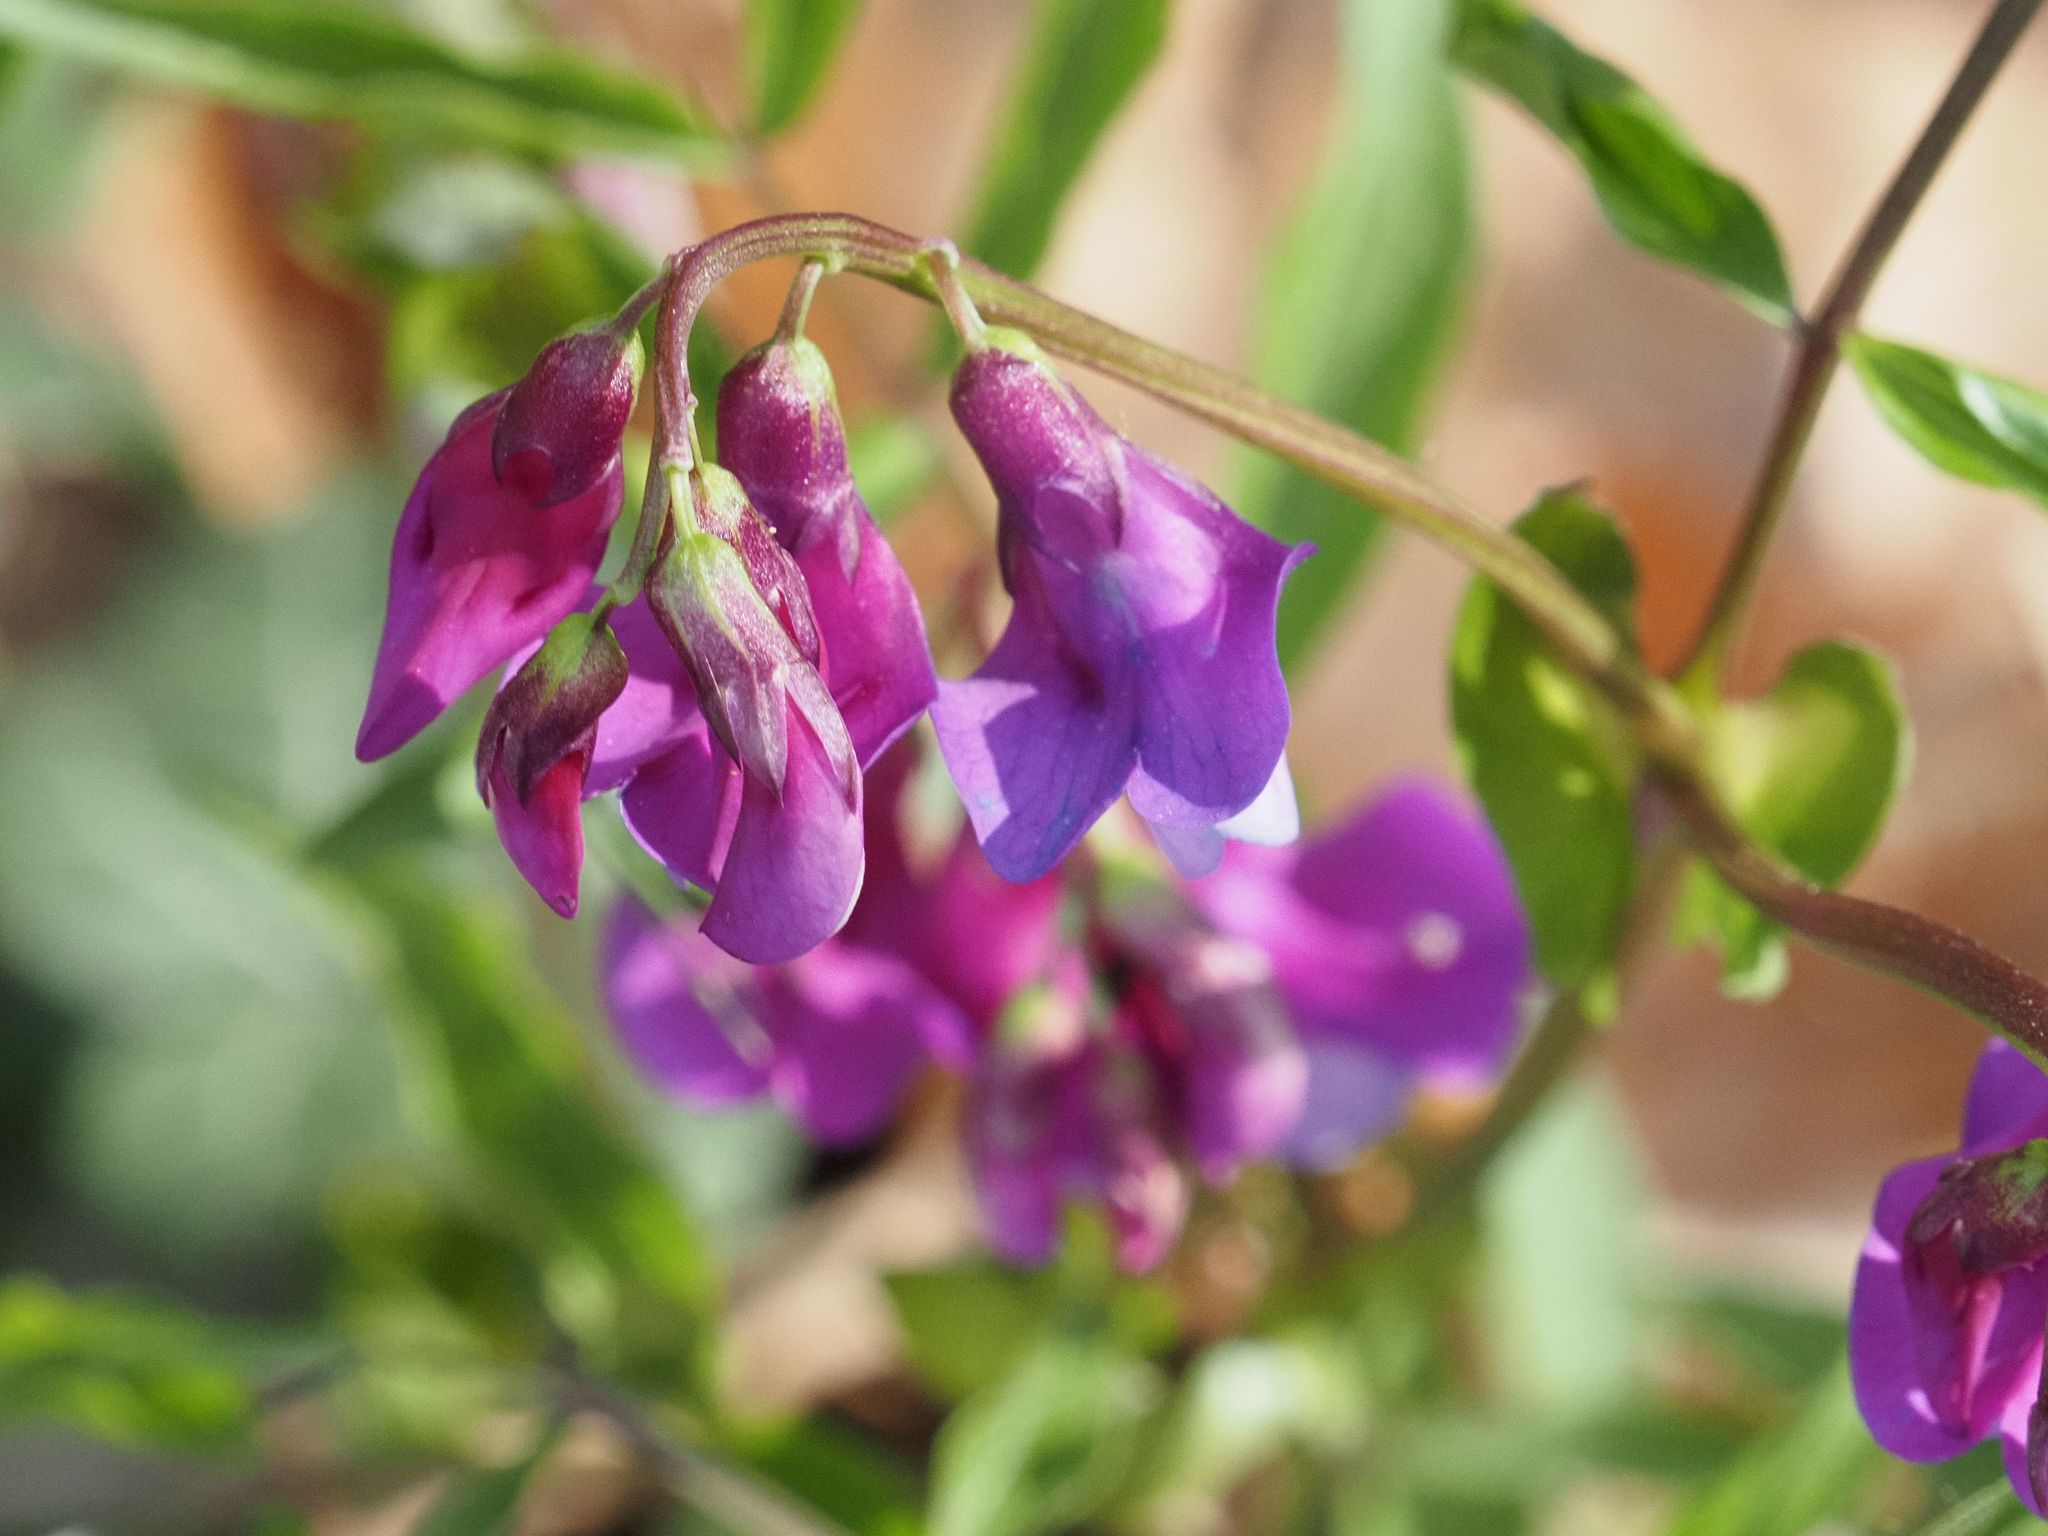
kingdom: Plantae
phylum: Tracheophyta
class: Magnoliopsida
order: Fabales
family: Fabaceae
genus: Lathyrus
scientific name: Lathyrus vernus
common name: Spring pea
